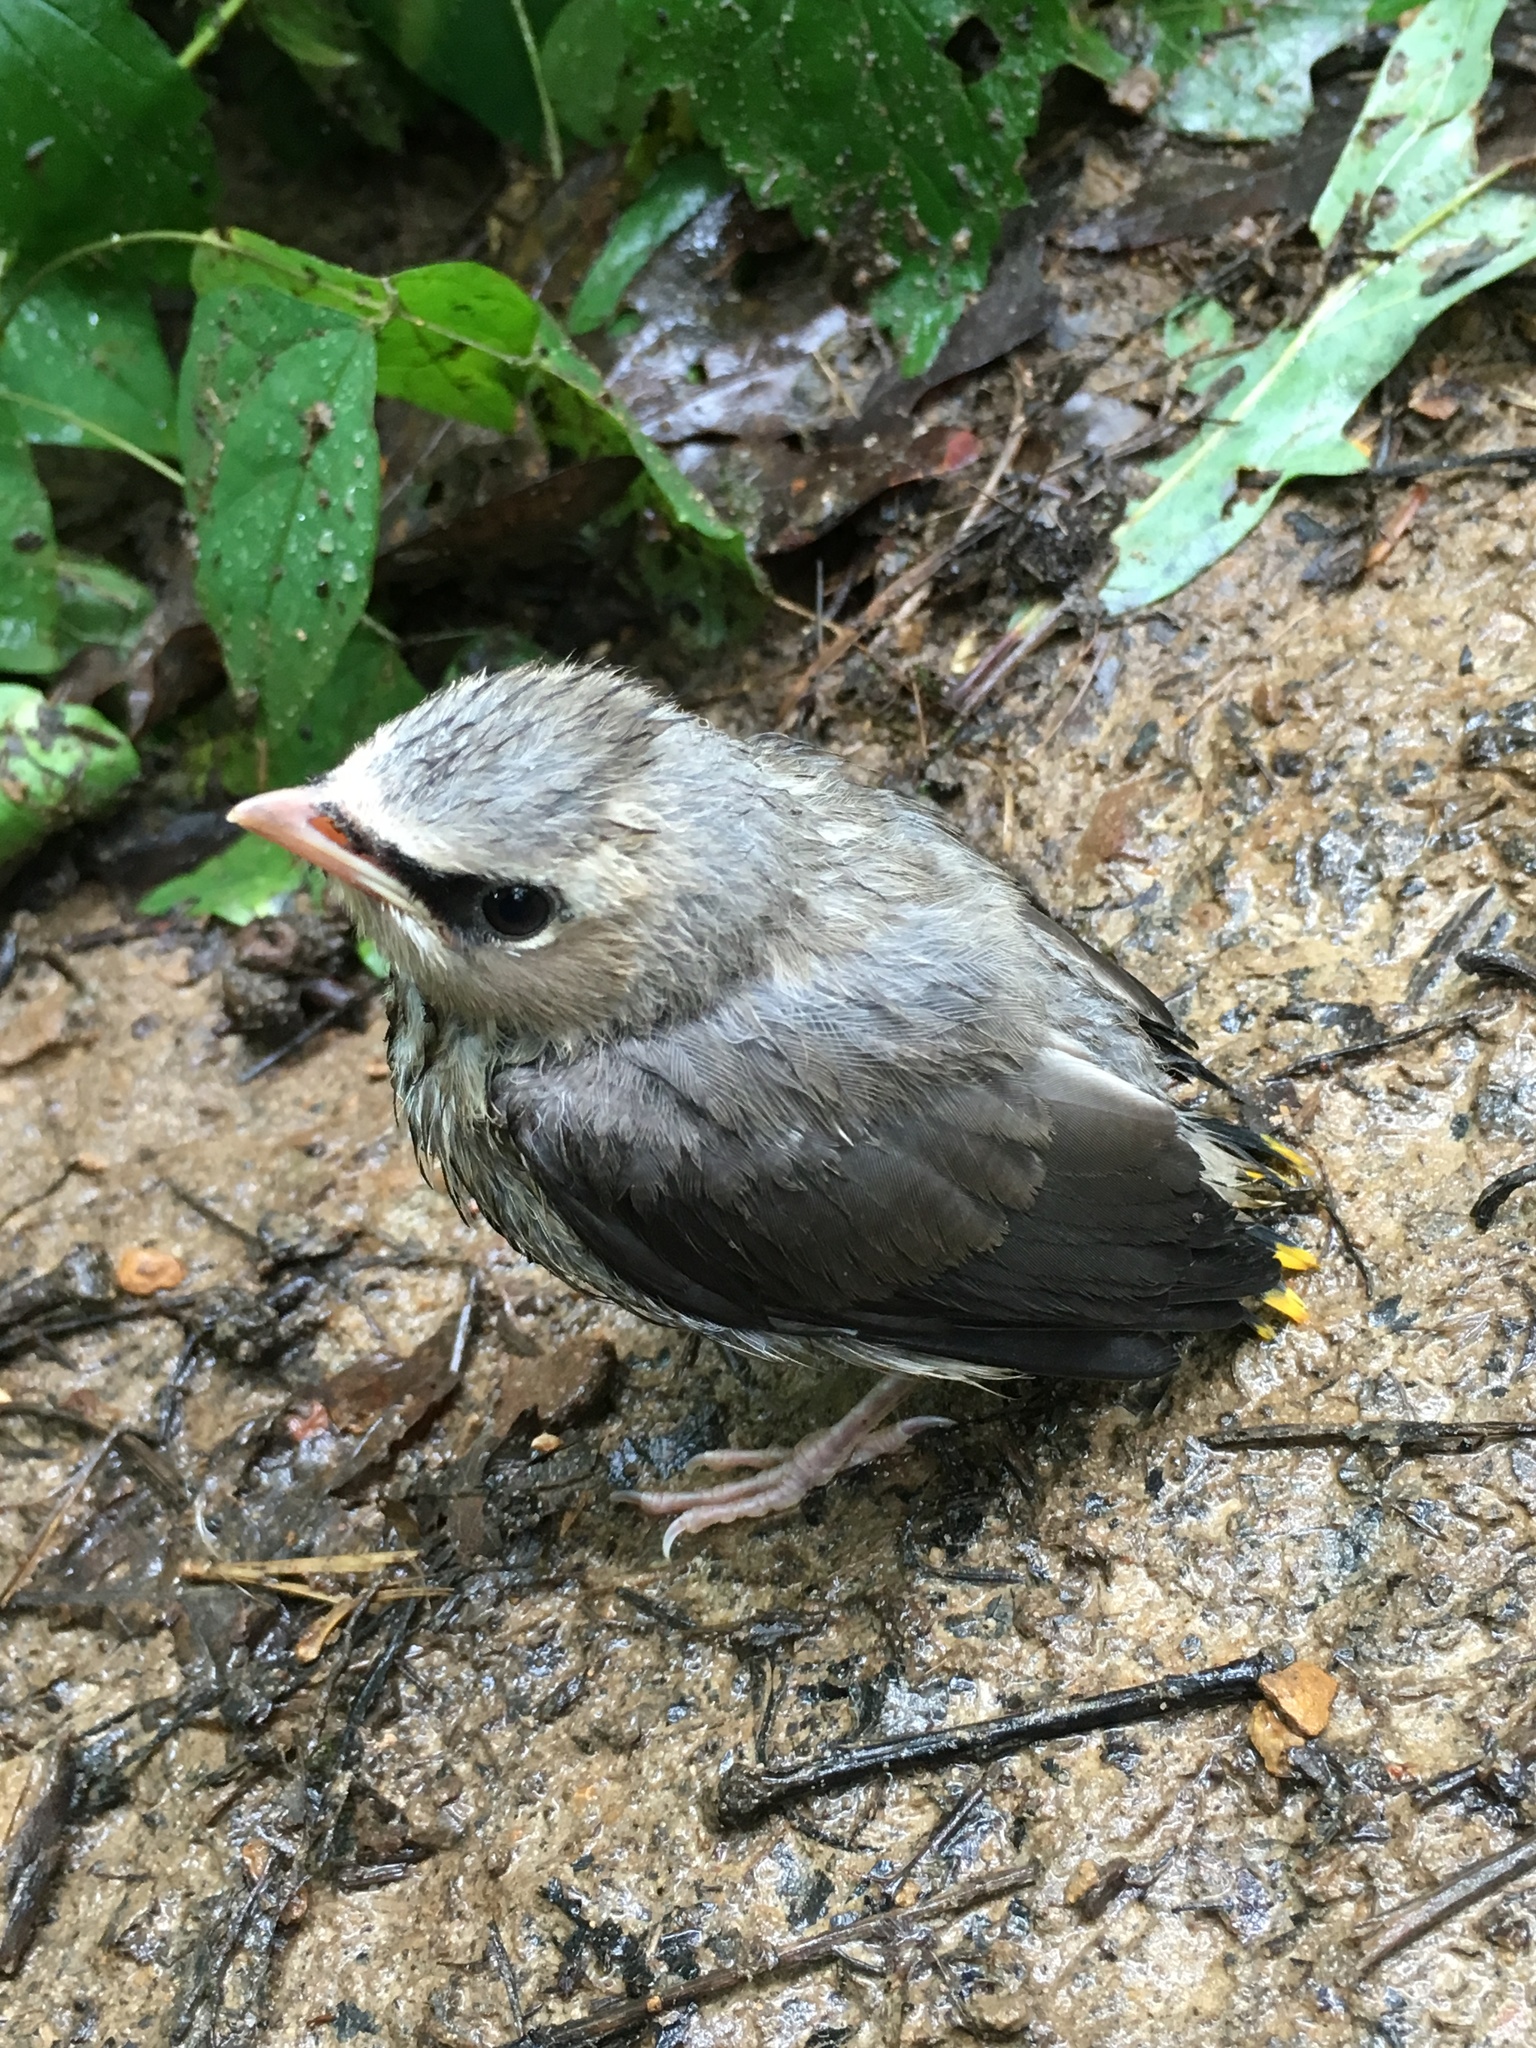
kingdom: Animalia
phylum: Chordata
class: Aves
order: Passeriformes
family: Bombycillidae
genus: Bombycilla
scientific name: Bombycilla cedrorum
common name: Cedar waxwing
